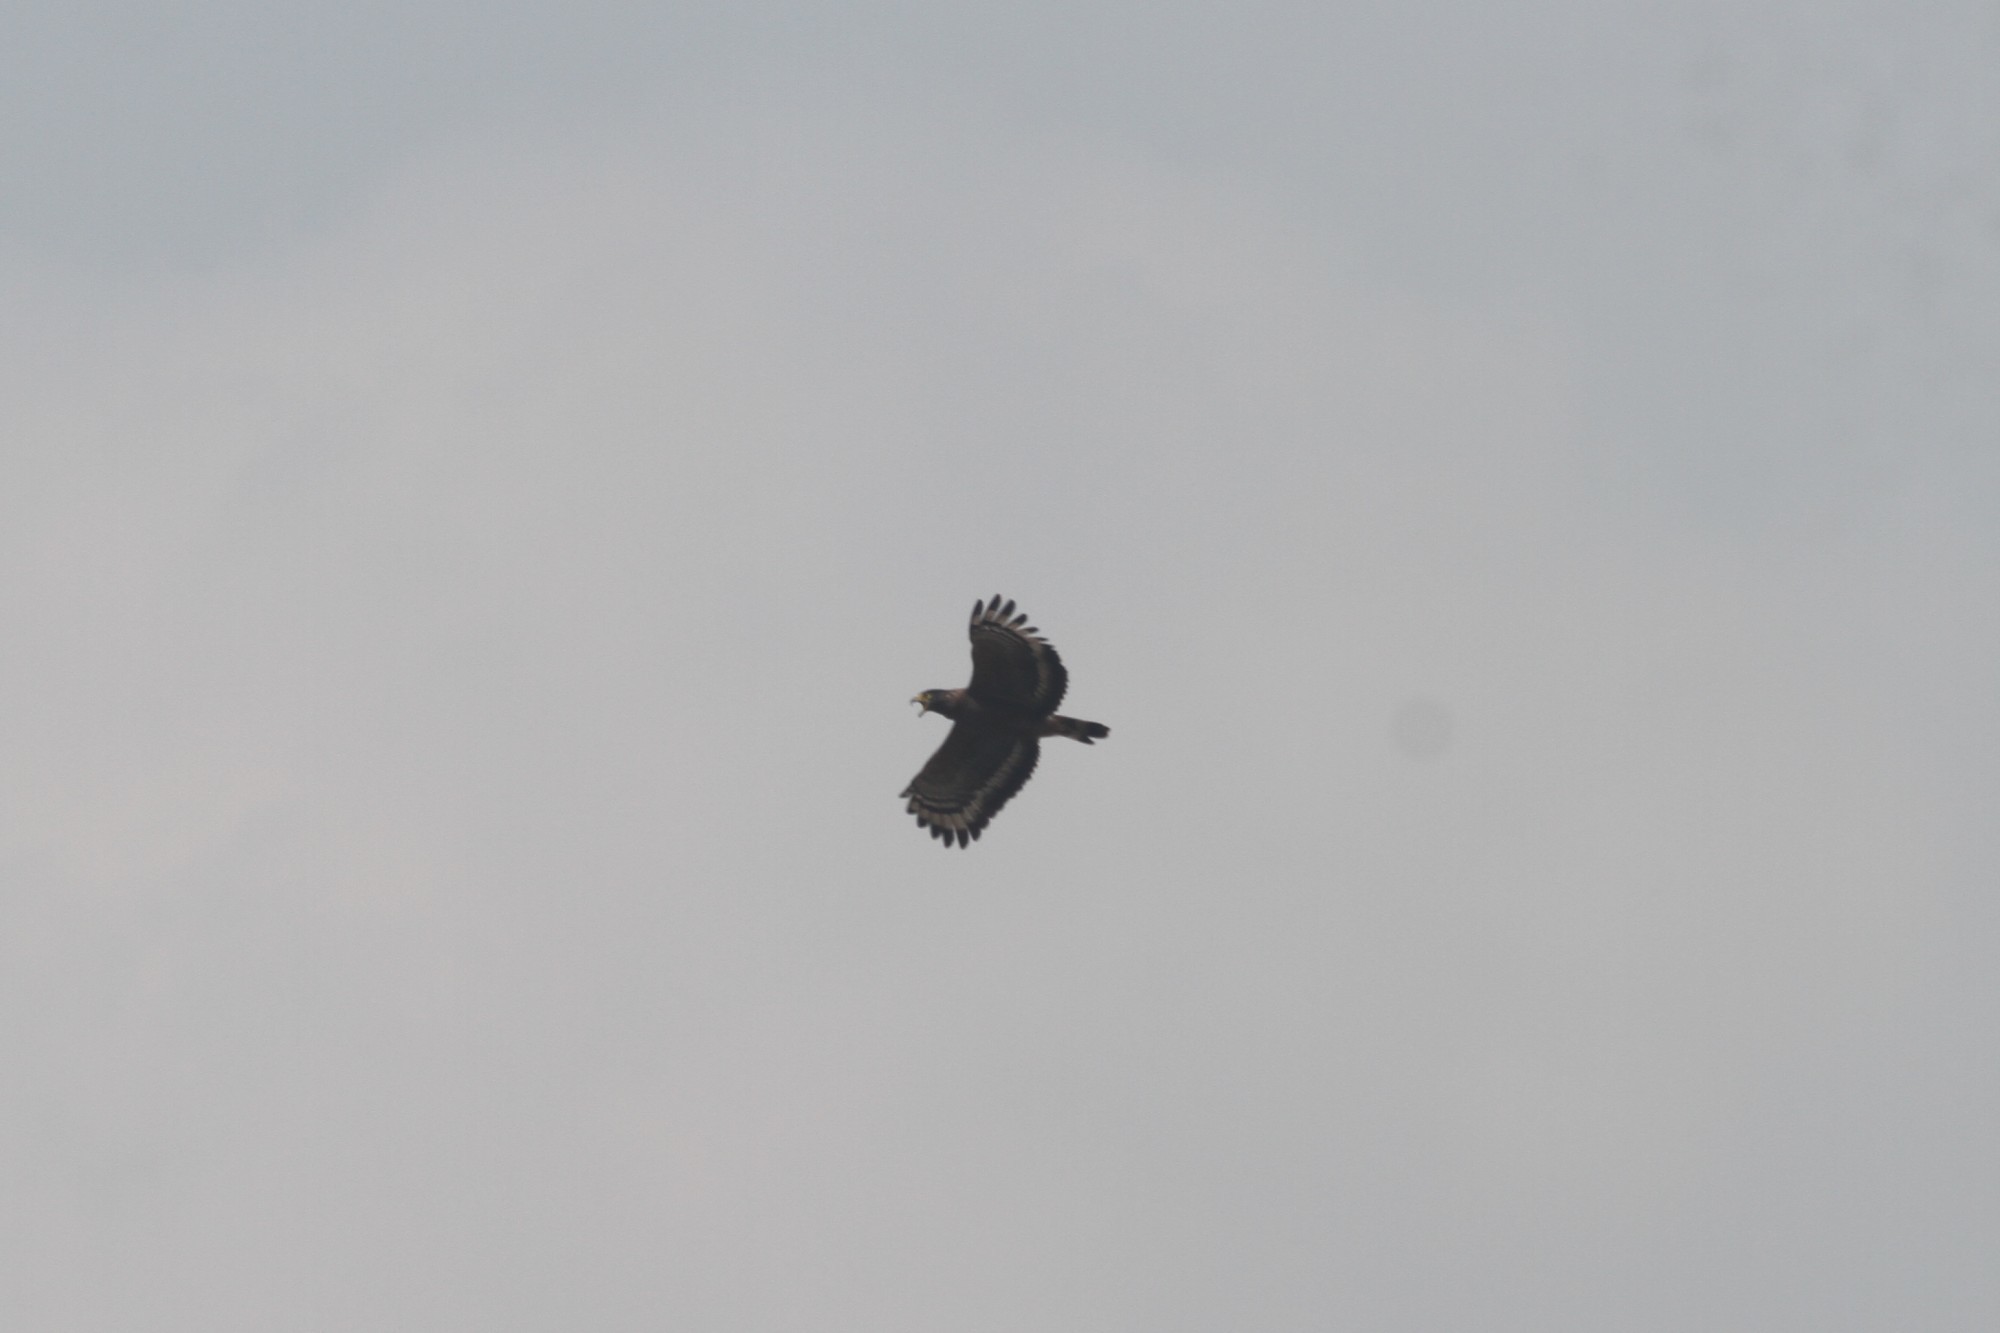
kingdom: Animalia
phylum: Chordata
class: Aves
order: Accipitriformes
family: Accipitridae
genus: Spilornis
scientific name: Spilornis cheela
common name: Crested serpent eagle
